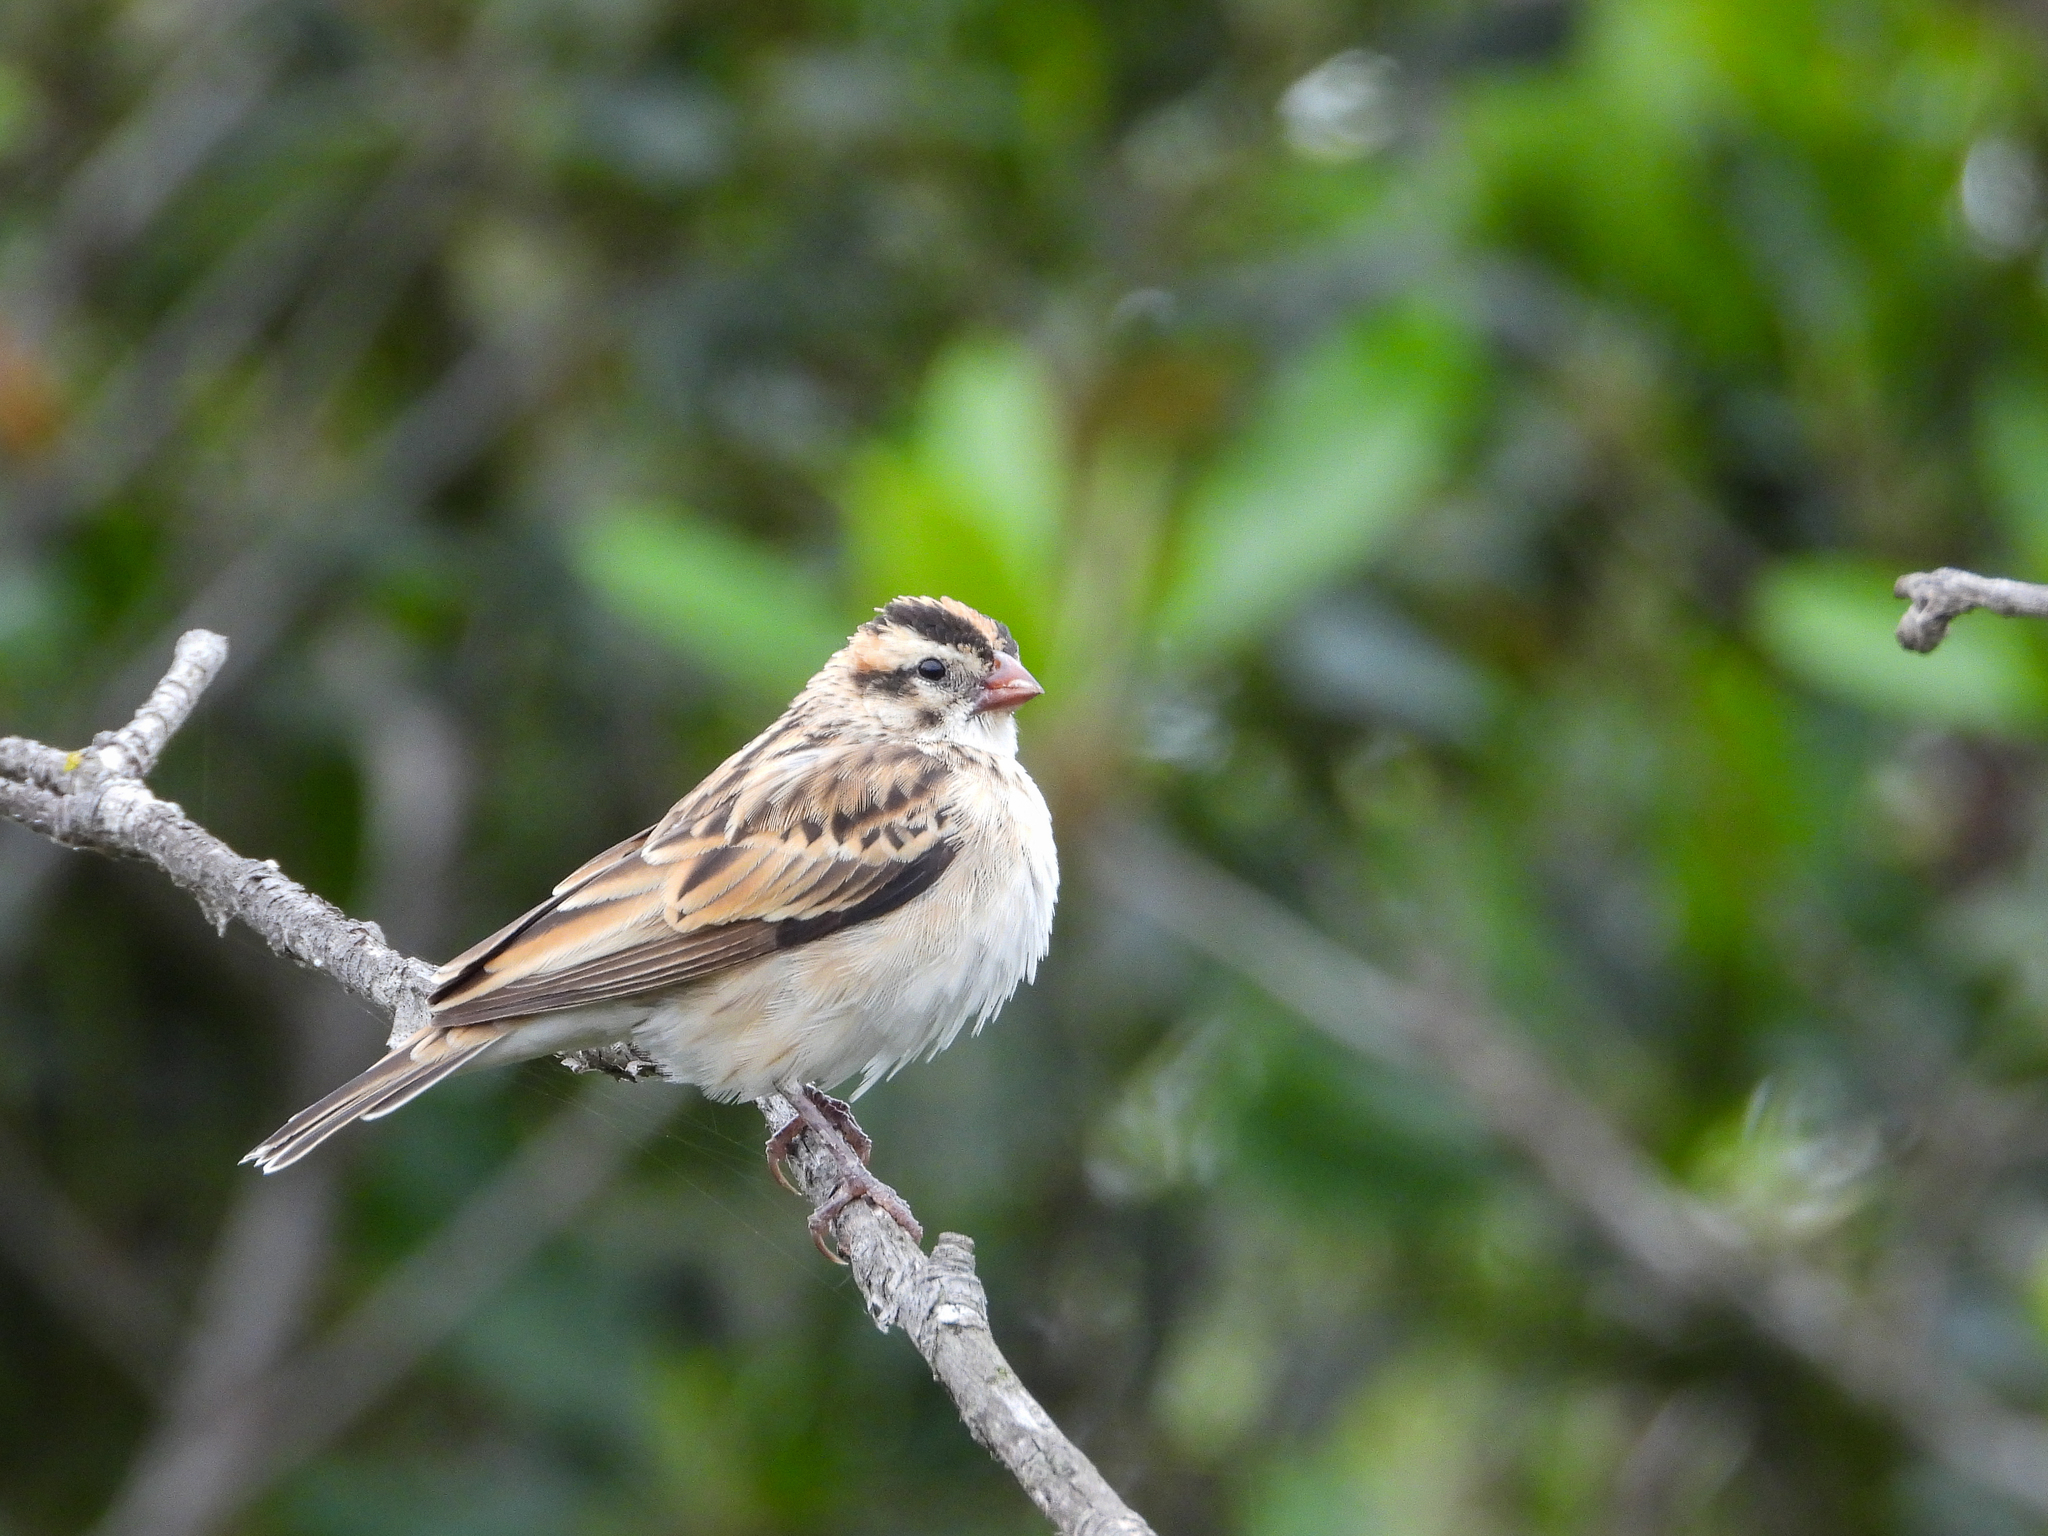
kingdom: Animalia
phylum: Chordata
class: Aves
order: Passeriformes
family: Viduidae
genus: Vidua
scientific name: Vidua macroura
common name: Pin-tailed whydah
